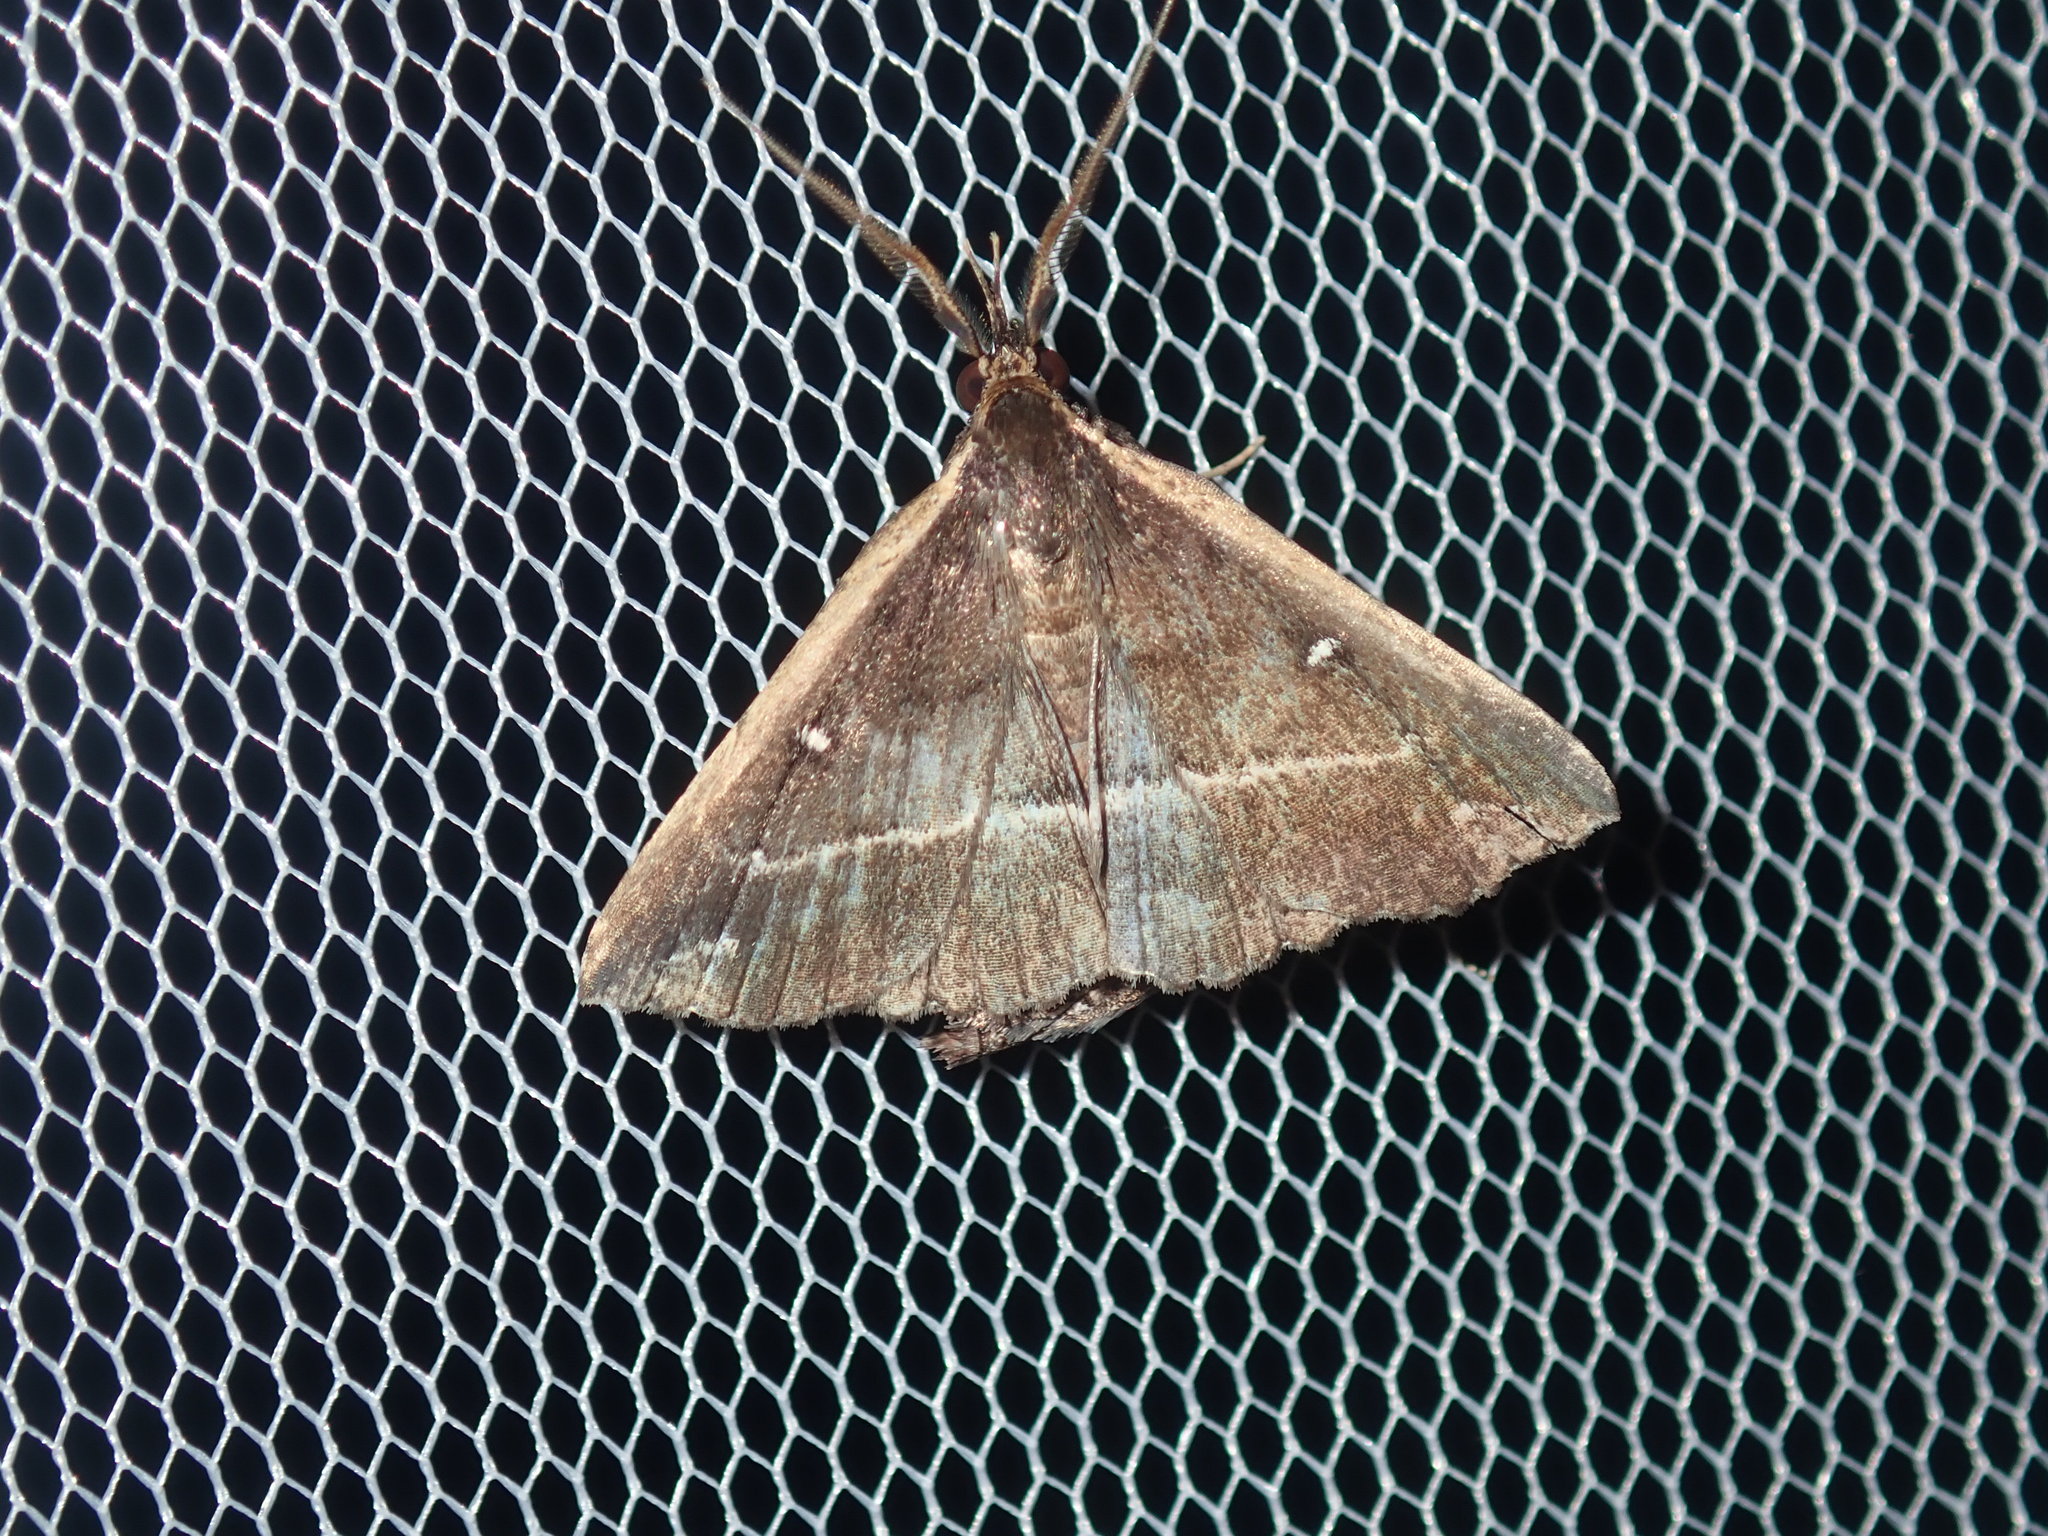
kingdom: Animalia
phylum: Arthropoda
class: Insecta
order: Lepidoptera
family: Erebidae
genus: Adrapsa
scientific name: Adrapsa ablualis
